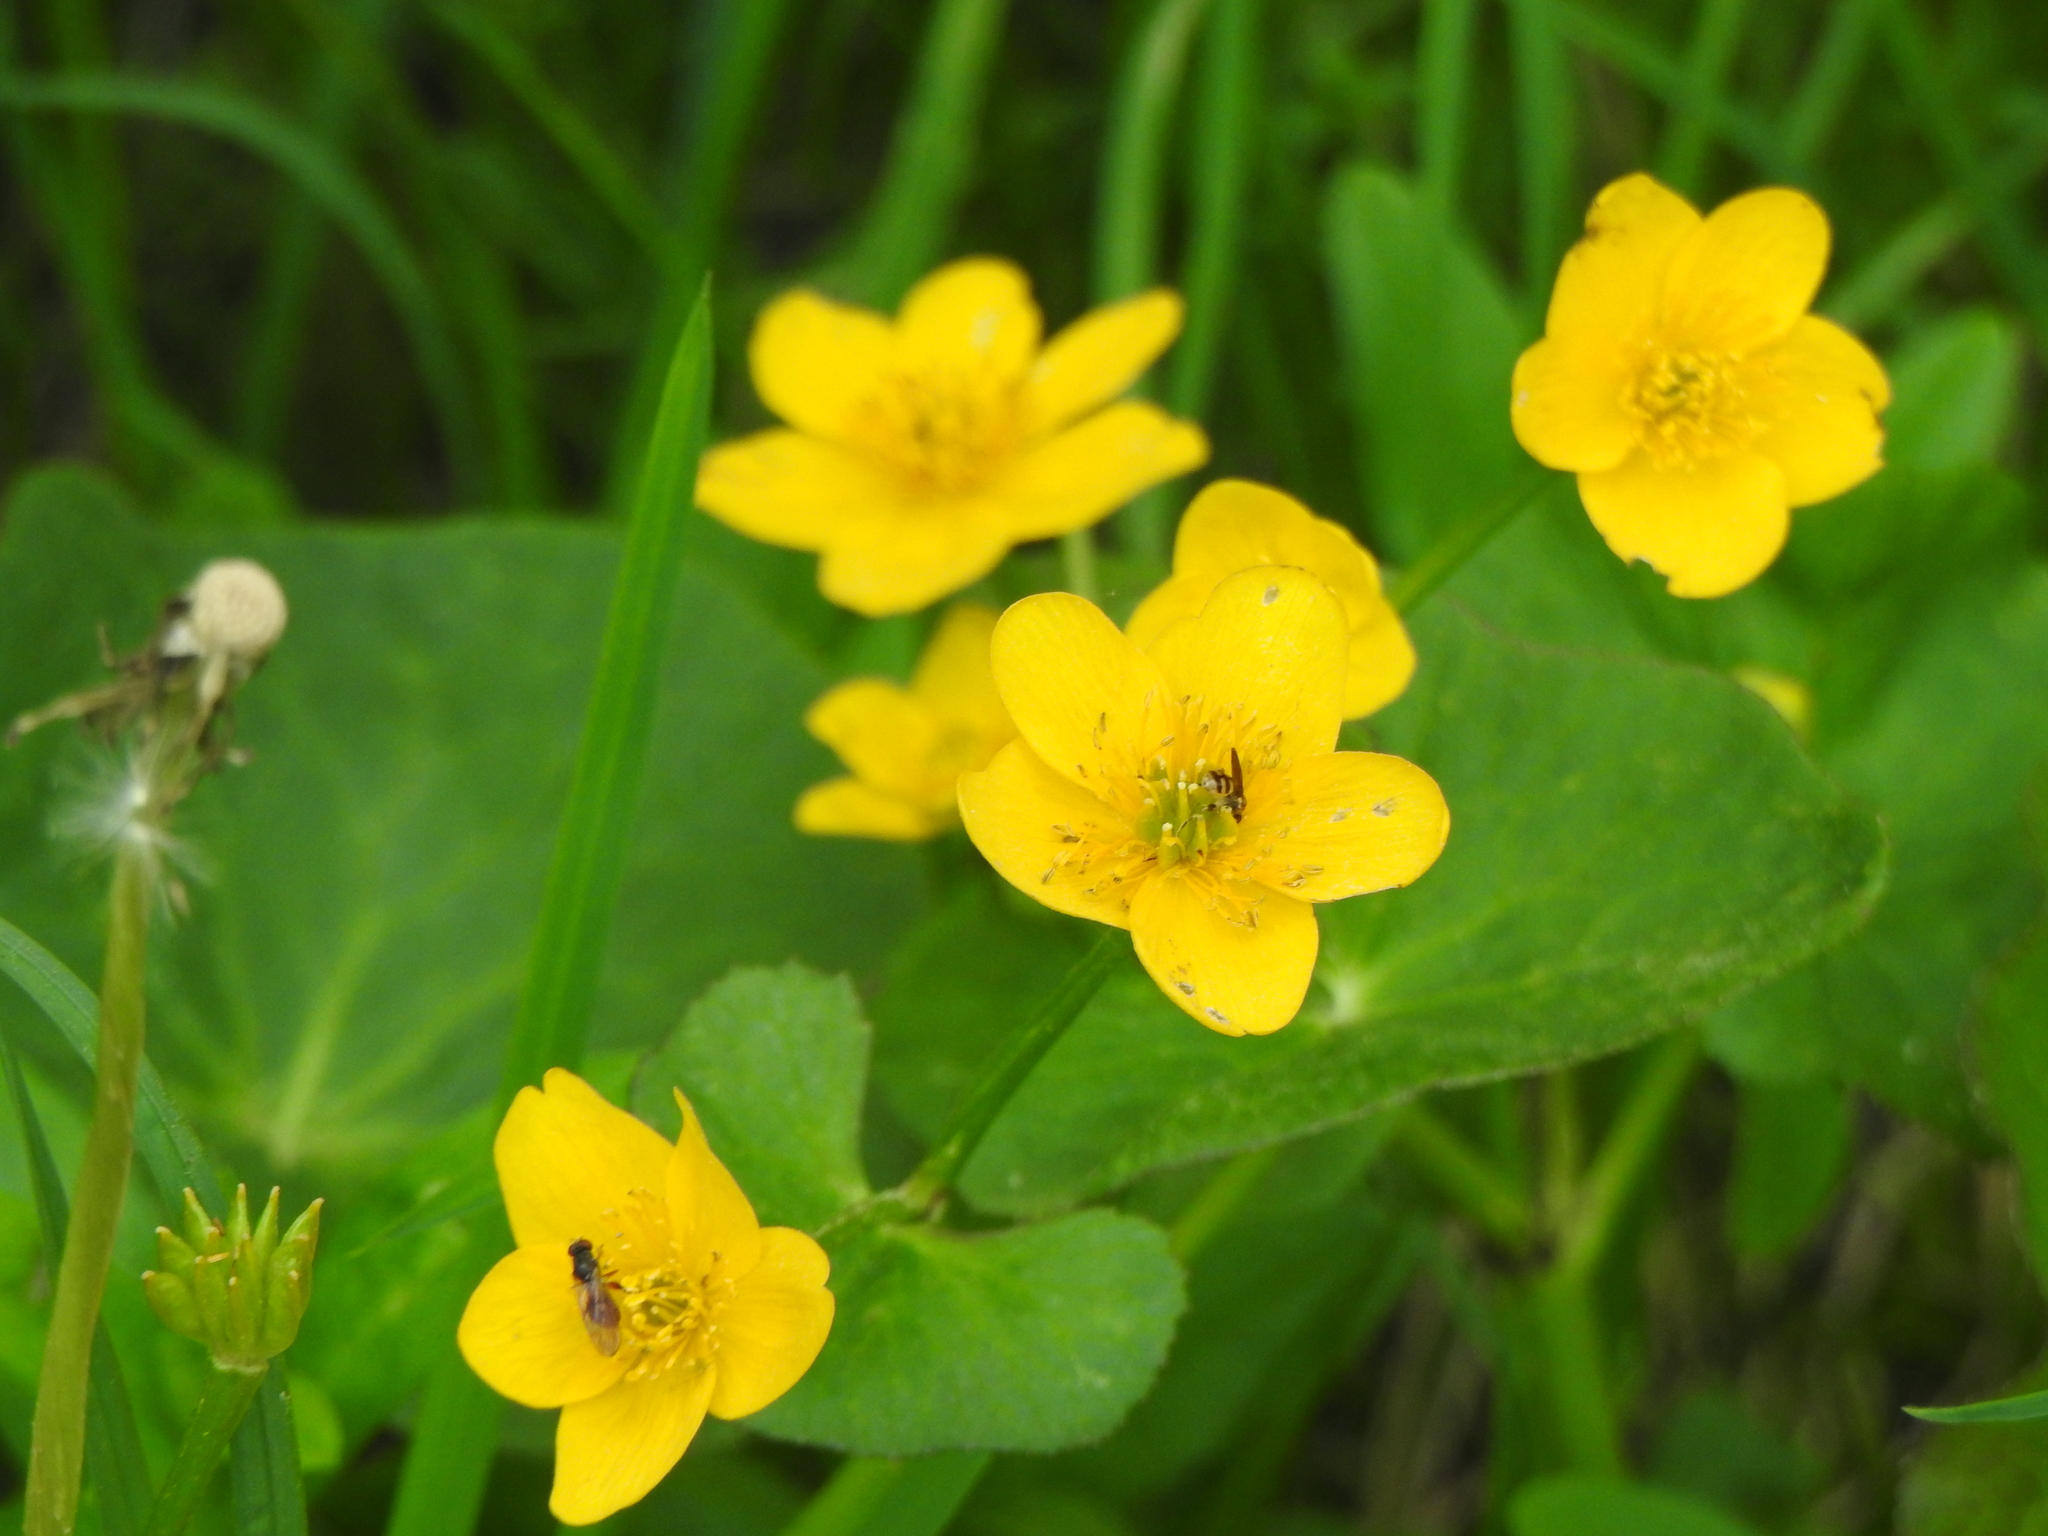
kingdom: Plantae
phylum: Tracheophyta
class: Magnoliopsida
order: Ranunculales
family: Ranunculaceae
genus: Caltha
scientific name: Caltha palustris
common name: Marsh marigold
